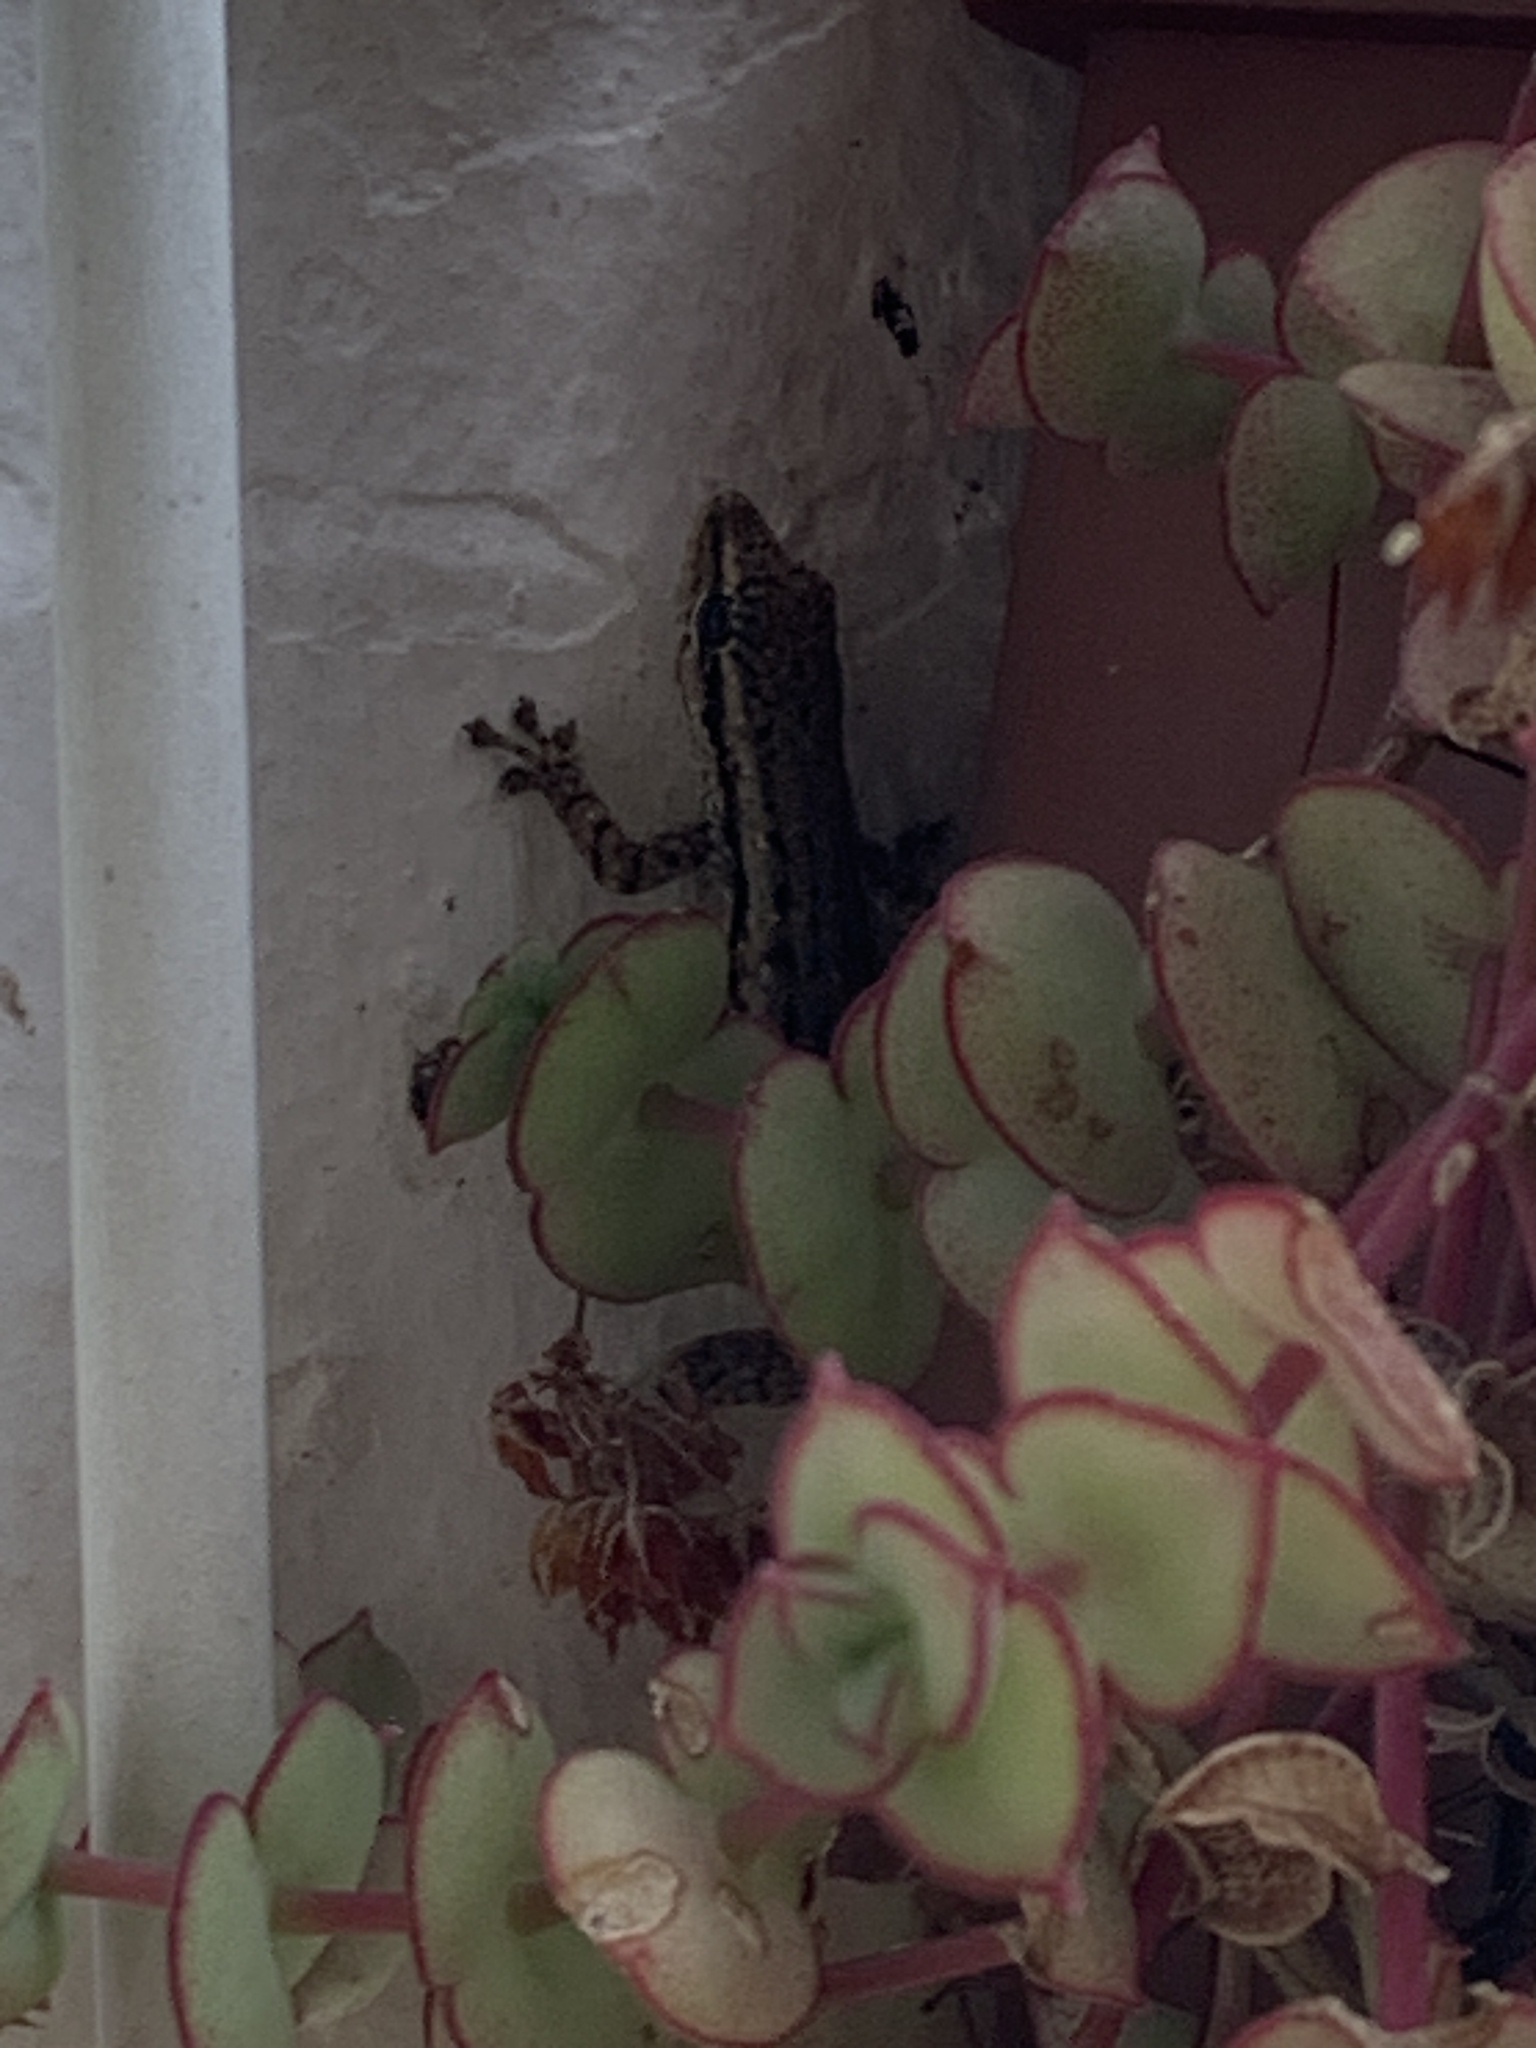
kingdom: Animalia
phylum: Chordata
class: Squamata
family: Gekkonidae
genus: Lygodactylus
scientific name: Lygodactylus capensis
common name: Cape dwarf gecko
